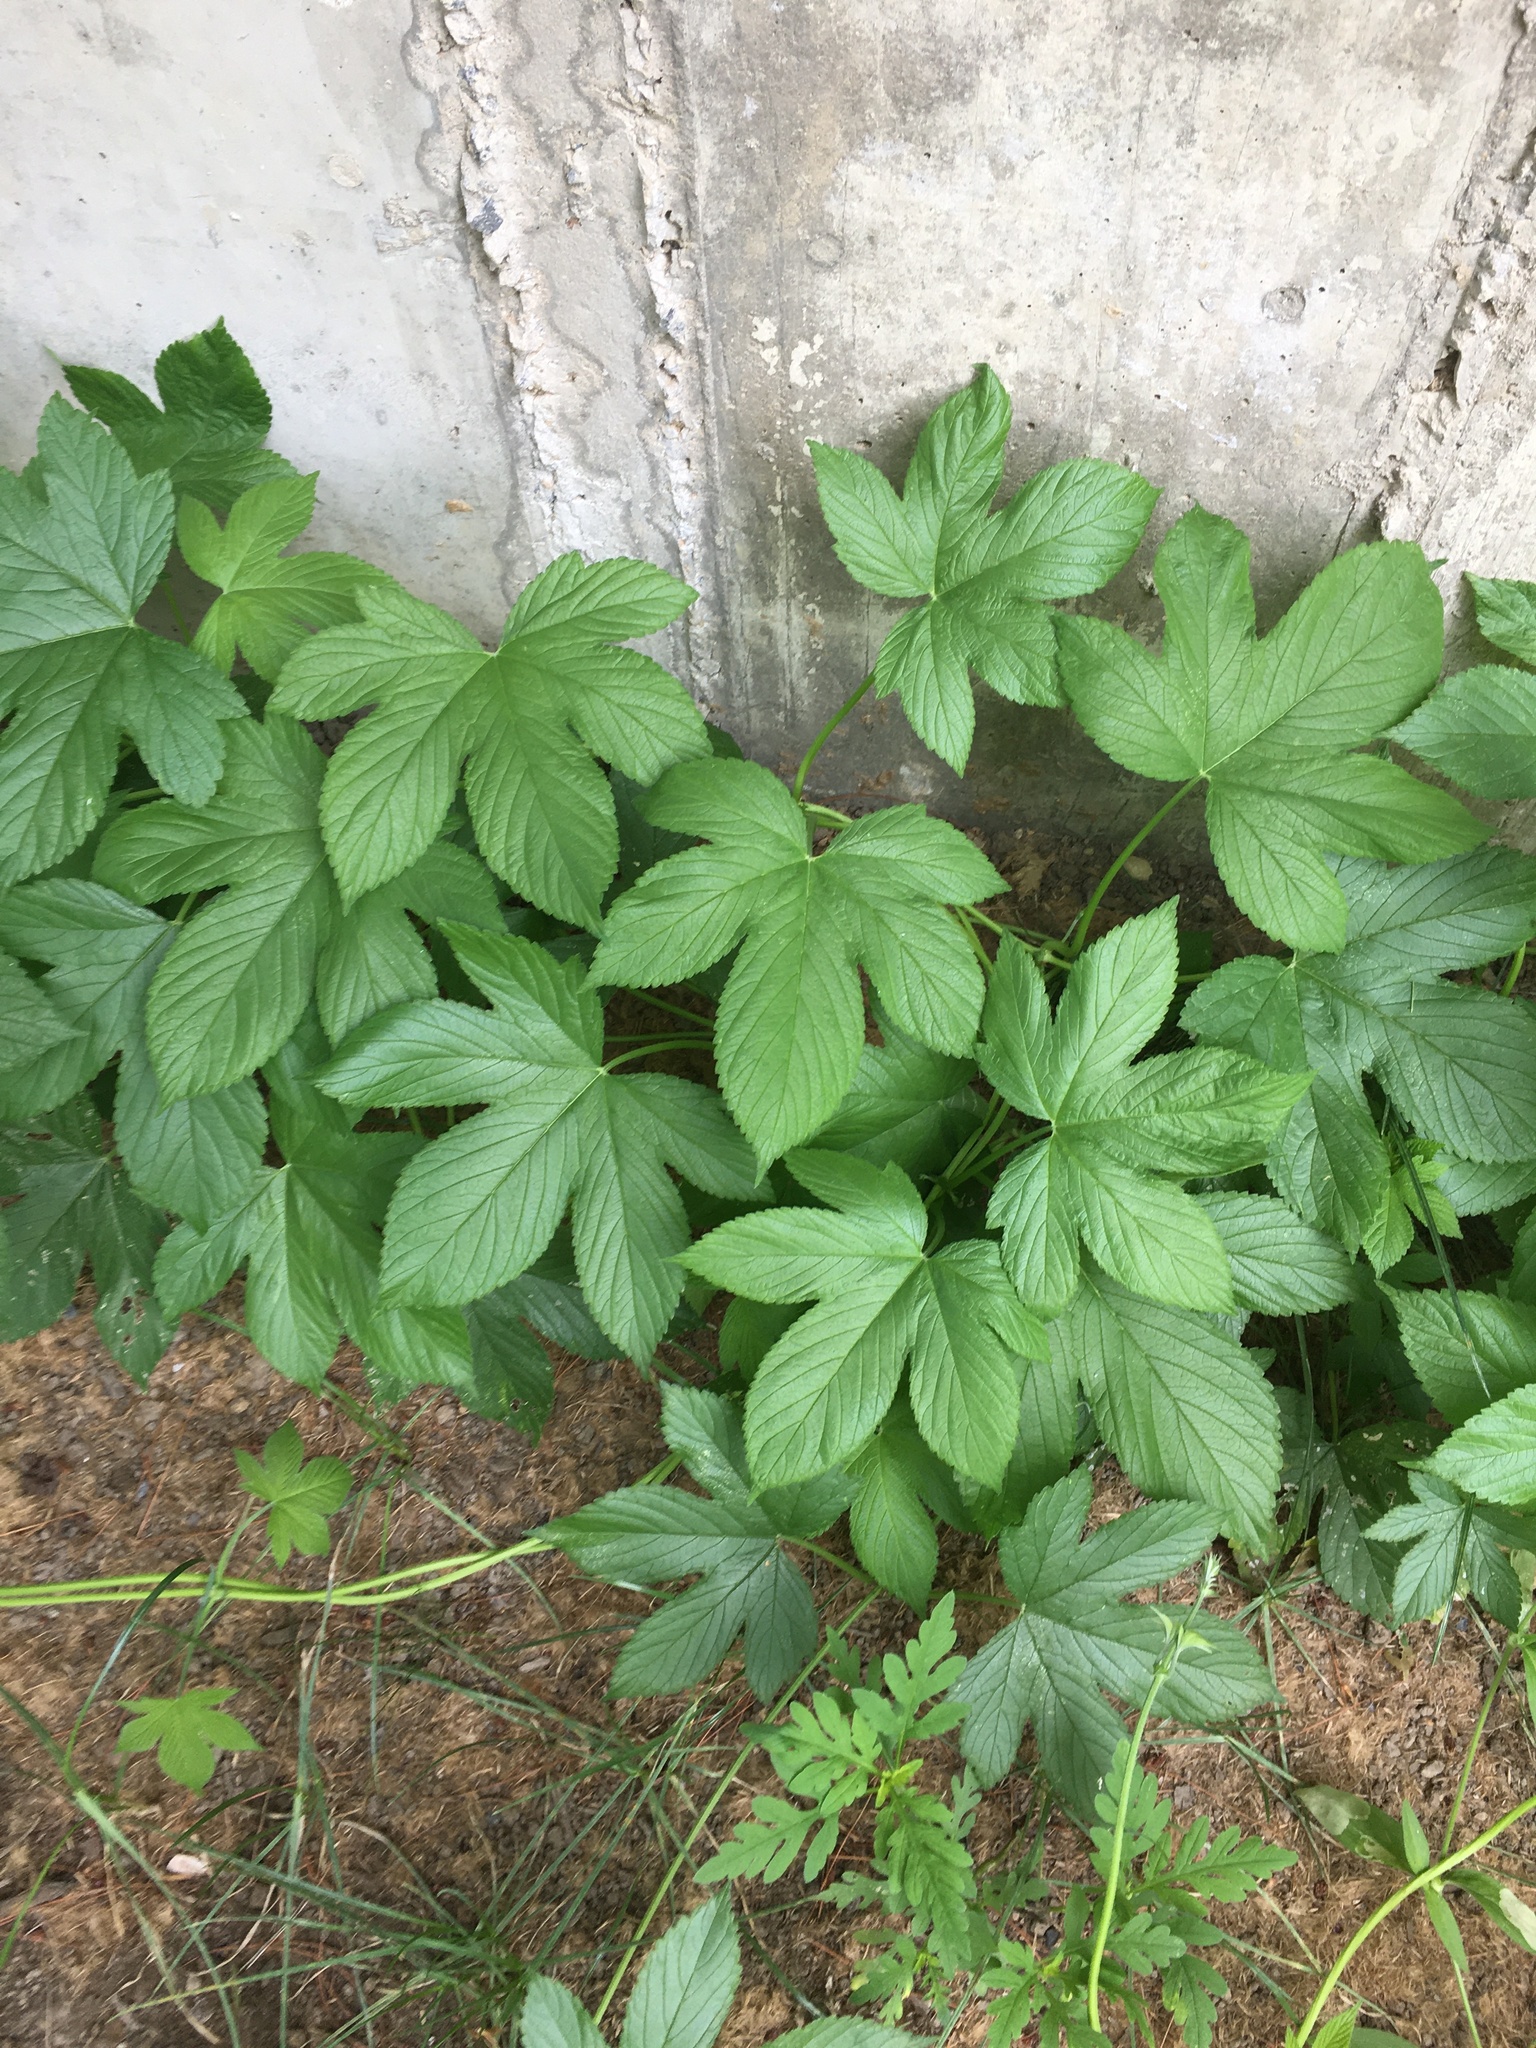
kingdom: Plantae
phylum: Tracheophyta
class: Magnoliopsida
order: Rosales
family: Cannabaceae
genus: Humulus
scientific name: Humulus scandens
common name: Japanese hop
